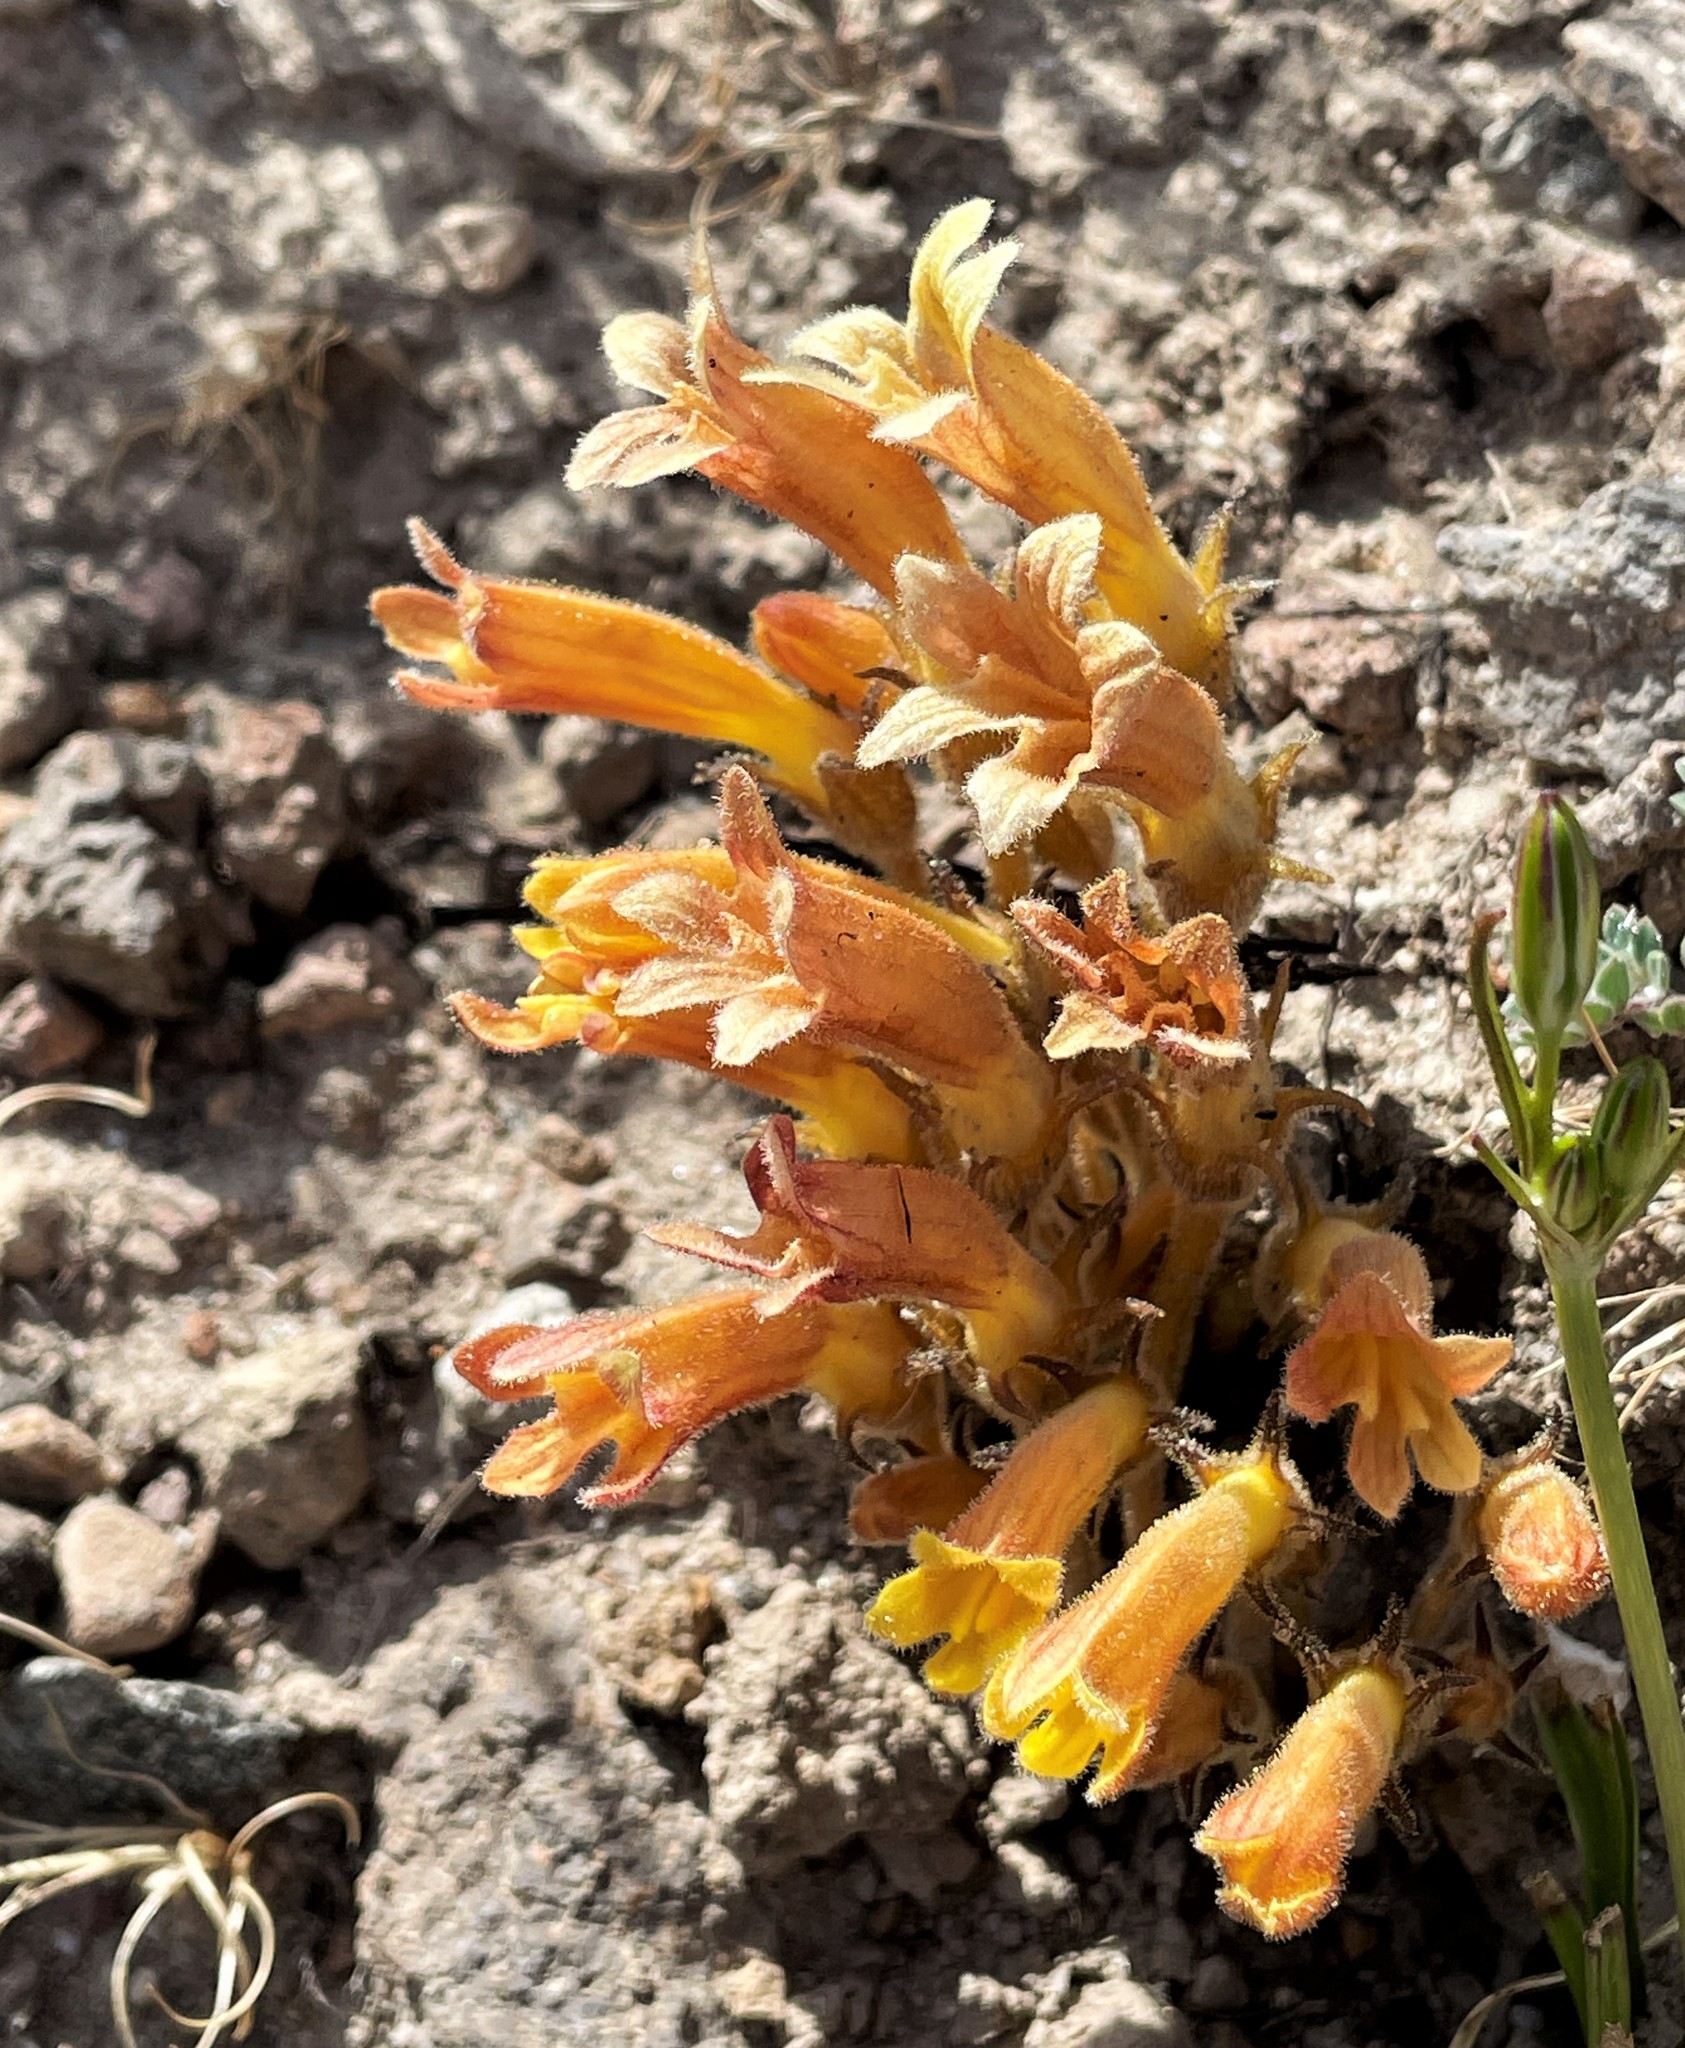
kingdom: Plantae
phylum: Tracheophyta
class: Magnoliopsida
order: Lamiales
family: Orobanchaceae
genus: Aphyllon
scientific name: Aphyllon franciscanum
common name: San francisco broomrape
